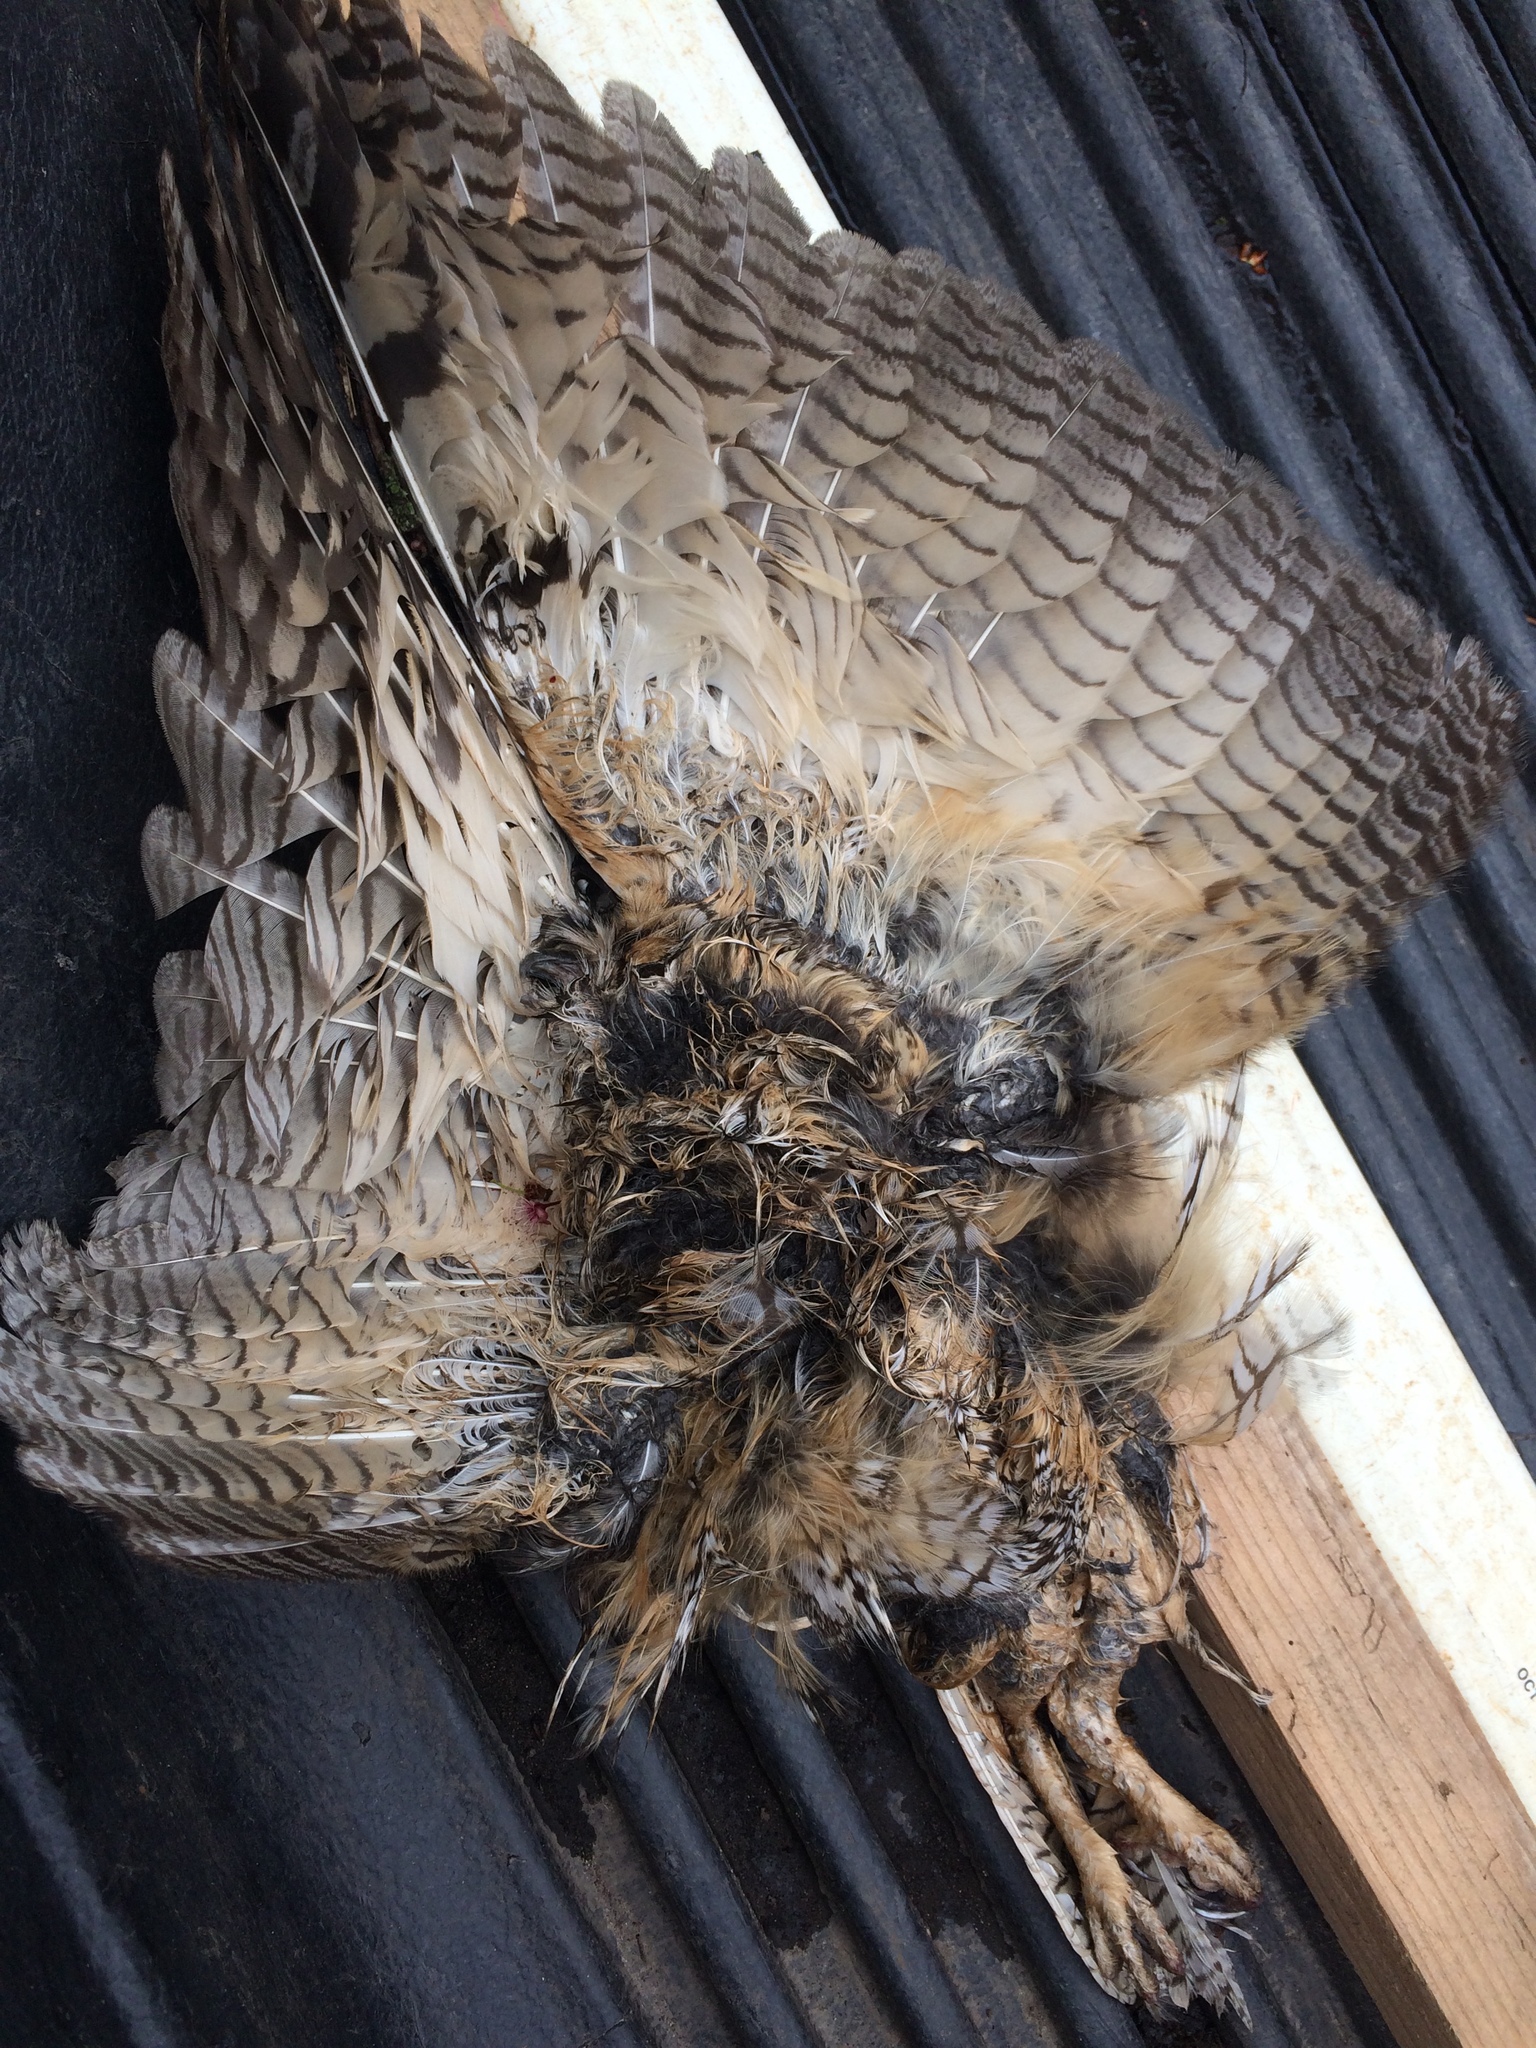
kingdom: Animalia
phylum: Chordata
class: Aves
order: Strigiformes
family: Strigidae
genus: Asio
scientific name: Asio otus
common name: Long-eared owl
